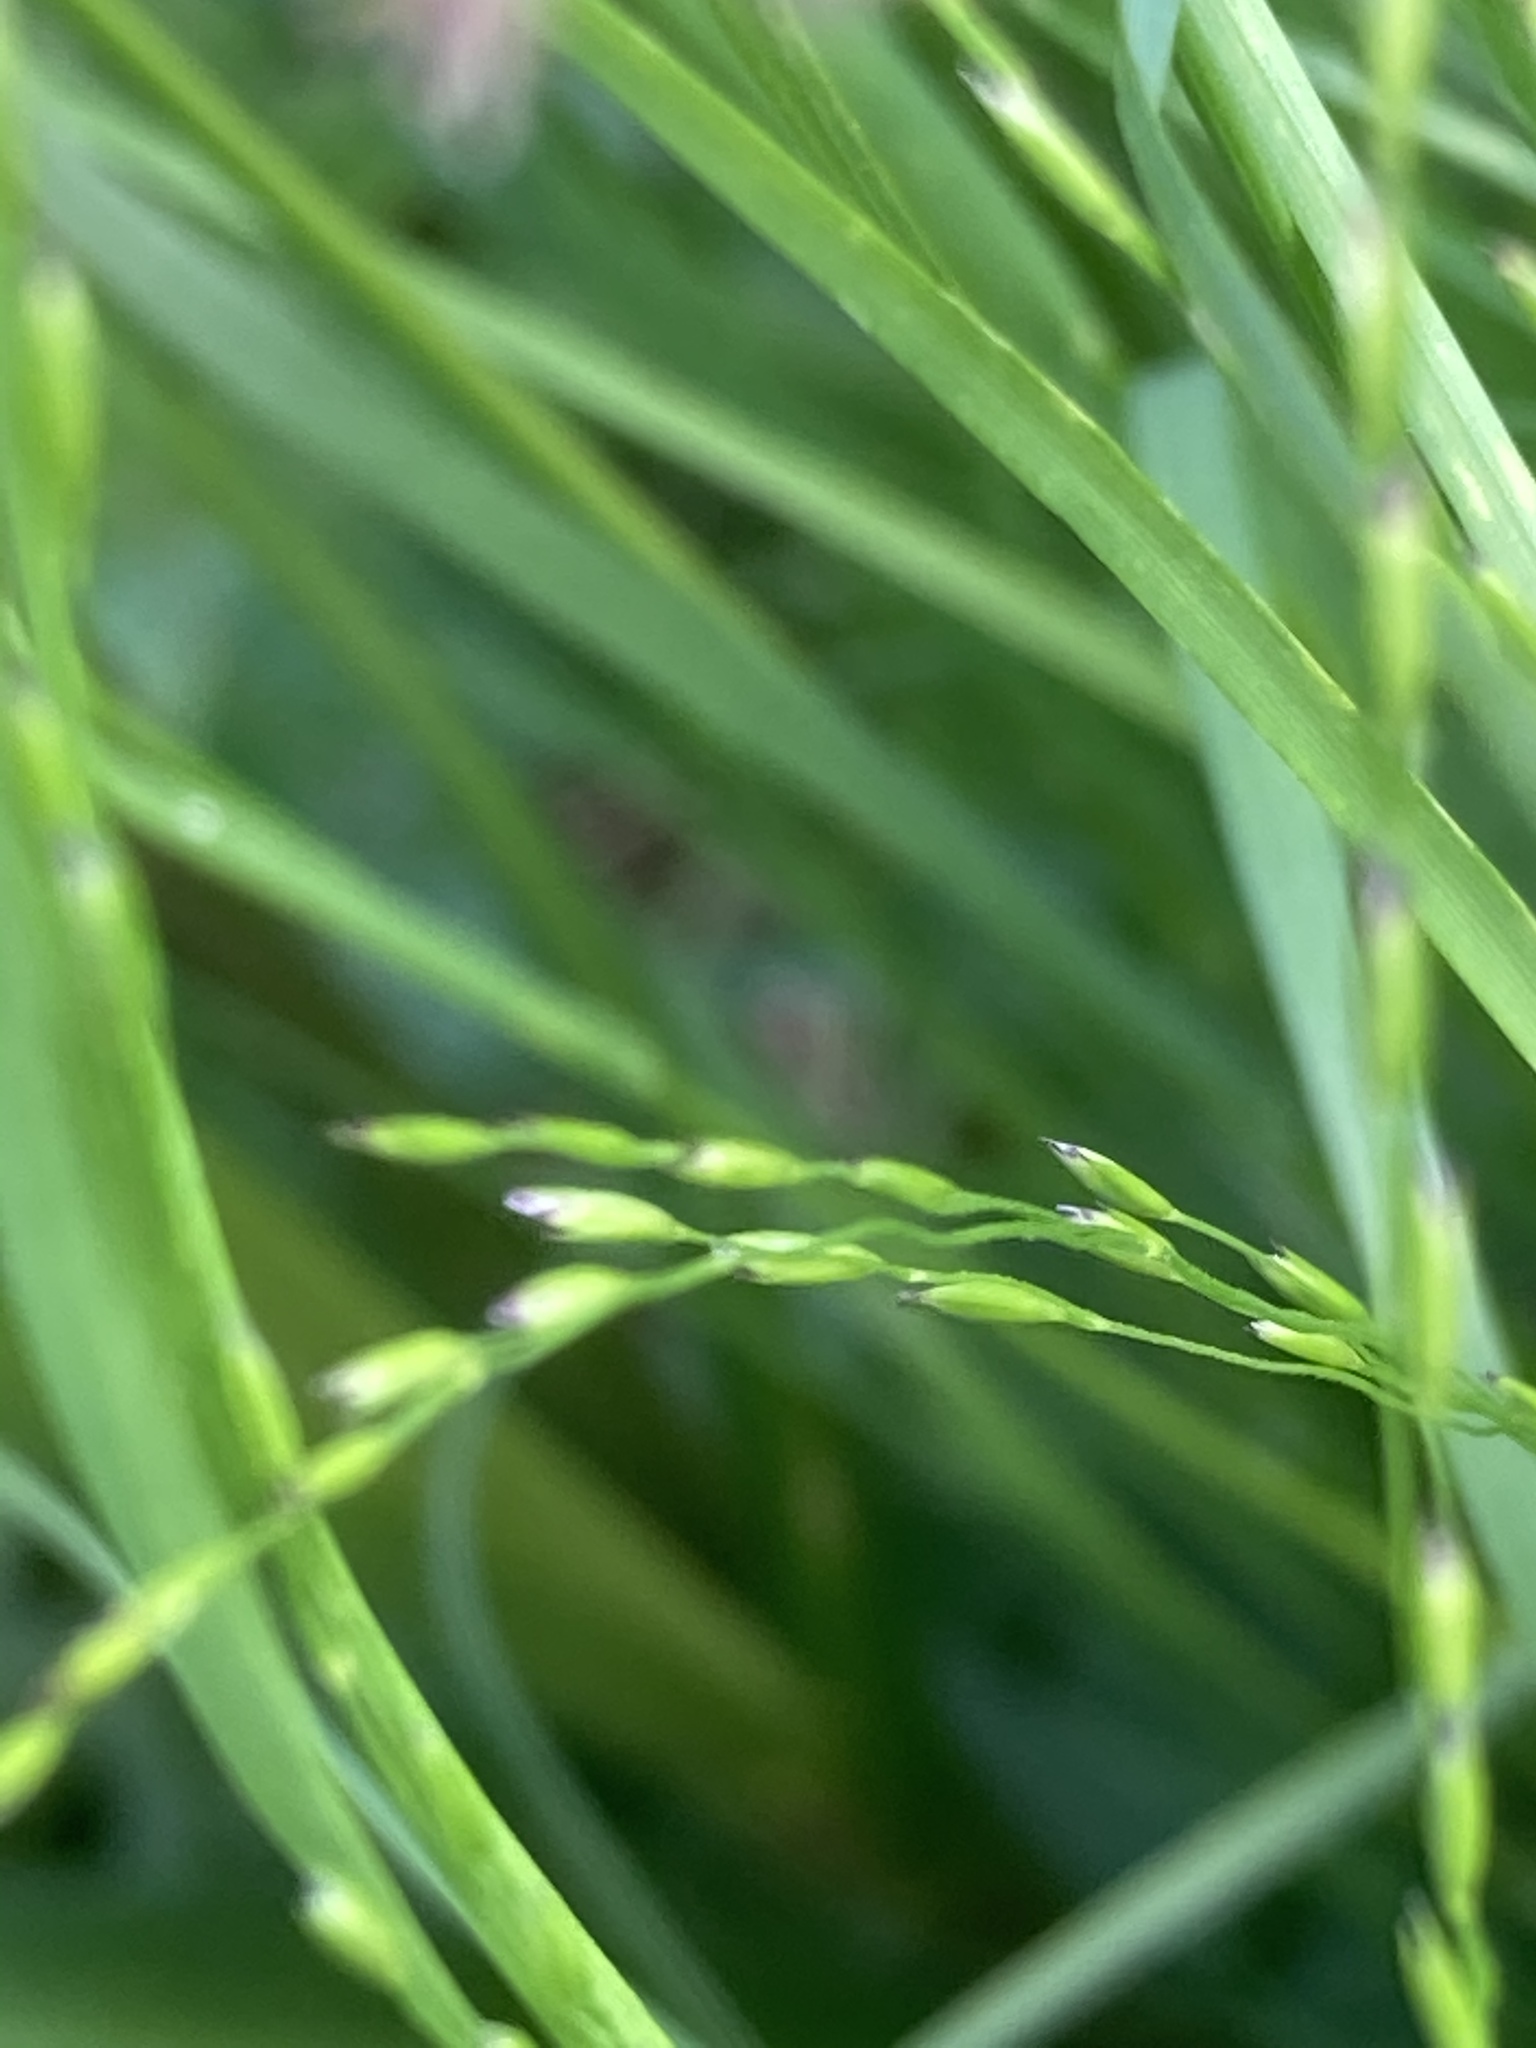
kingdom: Plantae
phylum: Tracheophyta
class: Liliopsida
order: Poales
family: Poaceae
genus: Poa
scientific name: Poa palustris
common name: Swamp meadow-grass
